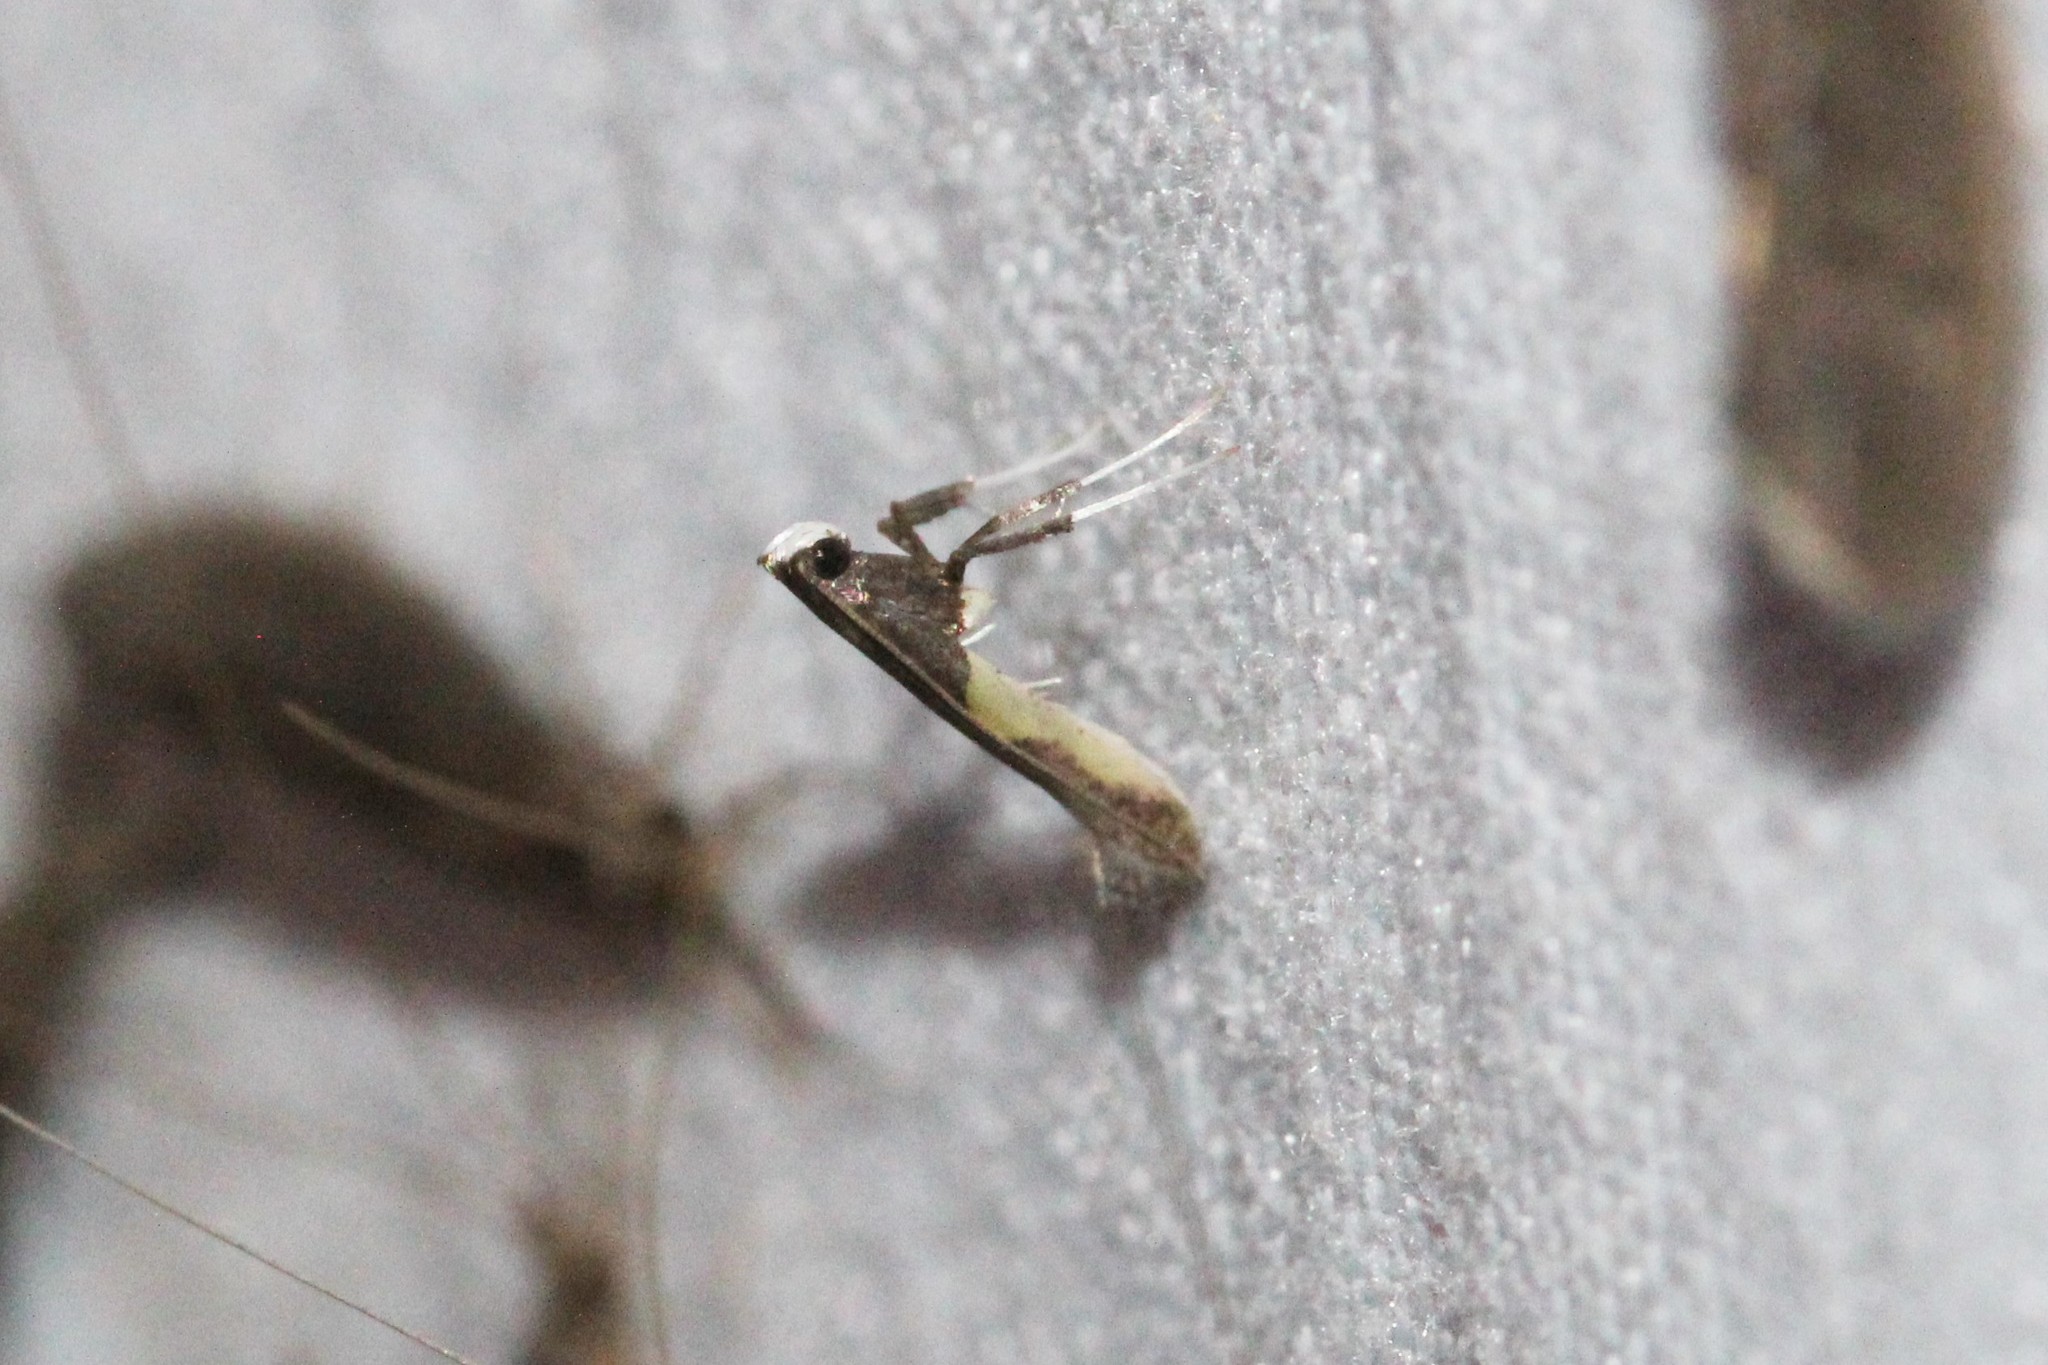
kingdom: Animalia
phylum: Arthropoda
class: Insecta
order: Lepidoptera
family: Gracillariidae
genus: Caloptilia
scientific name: Caloptilia belfragella
